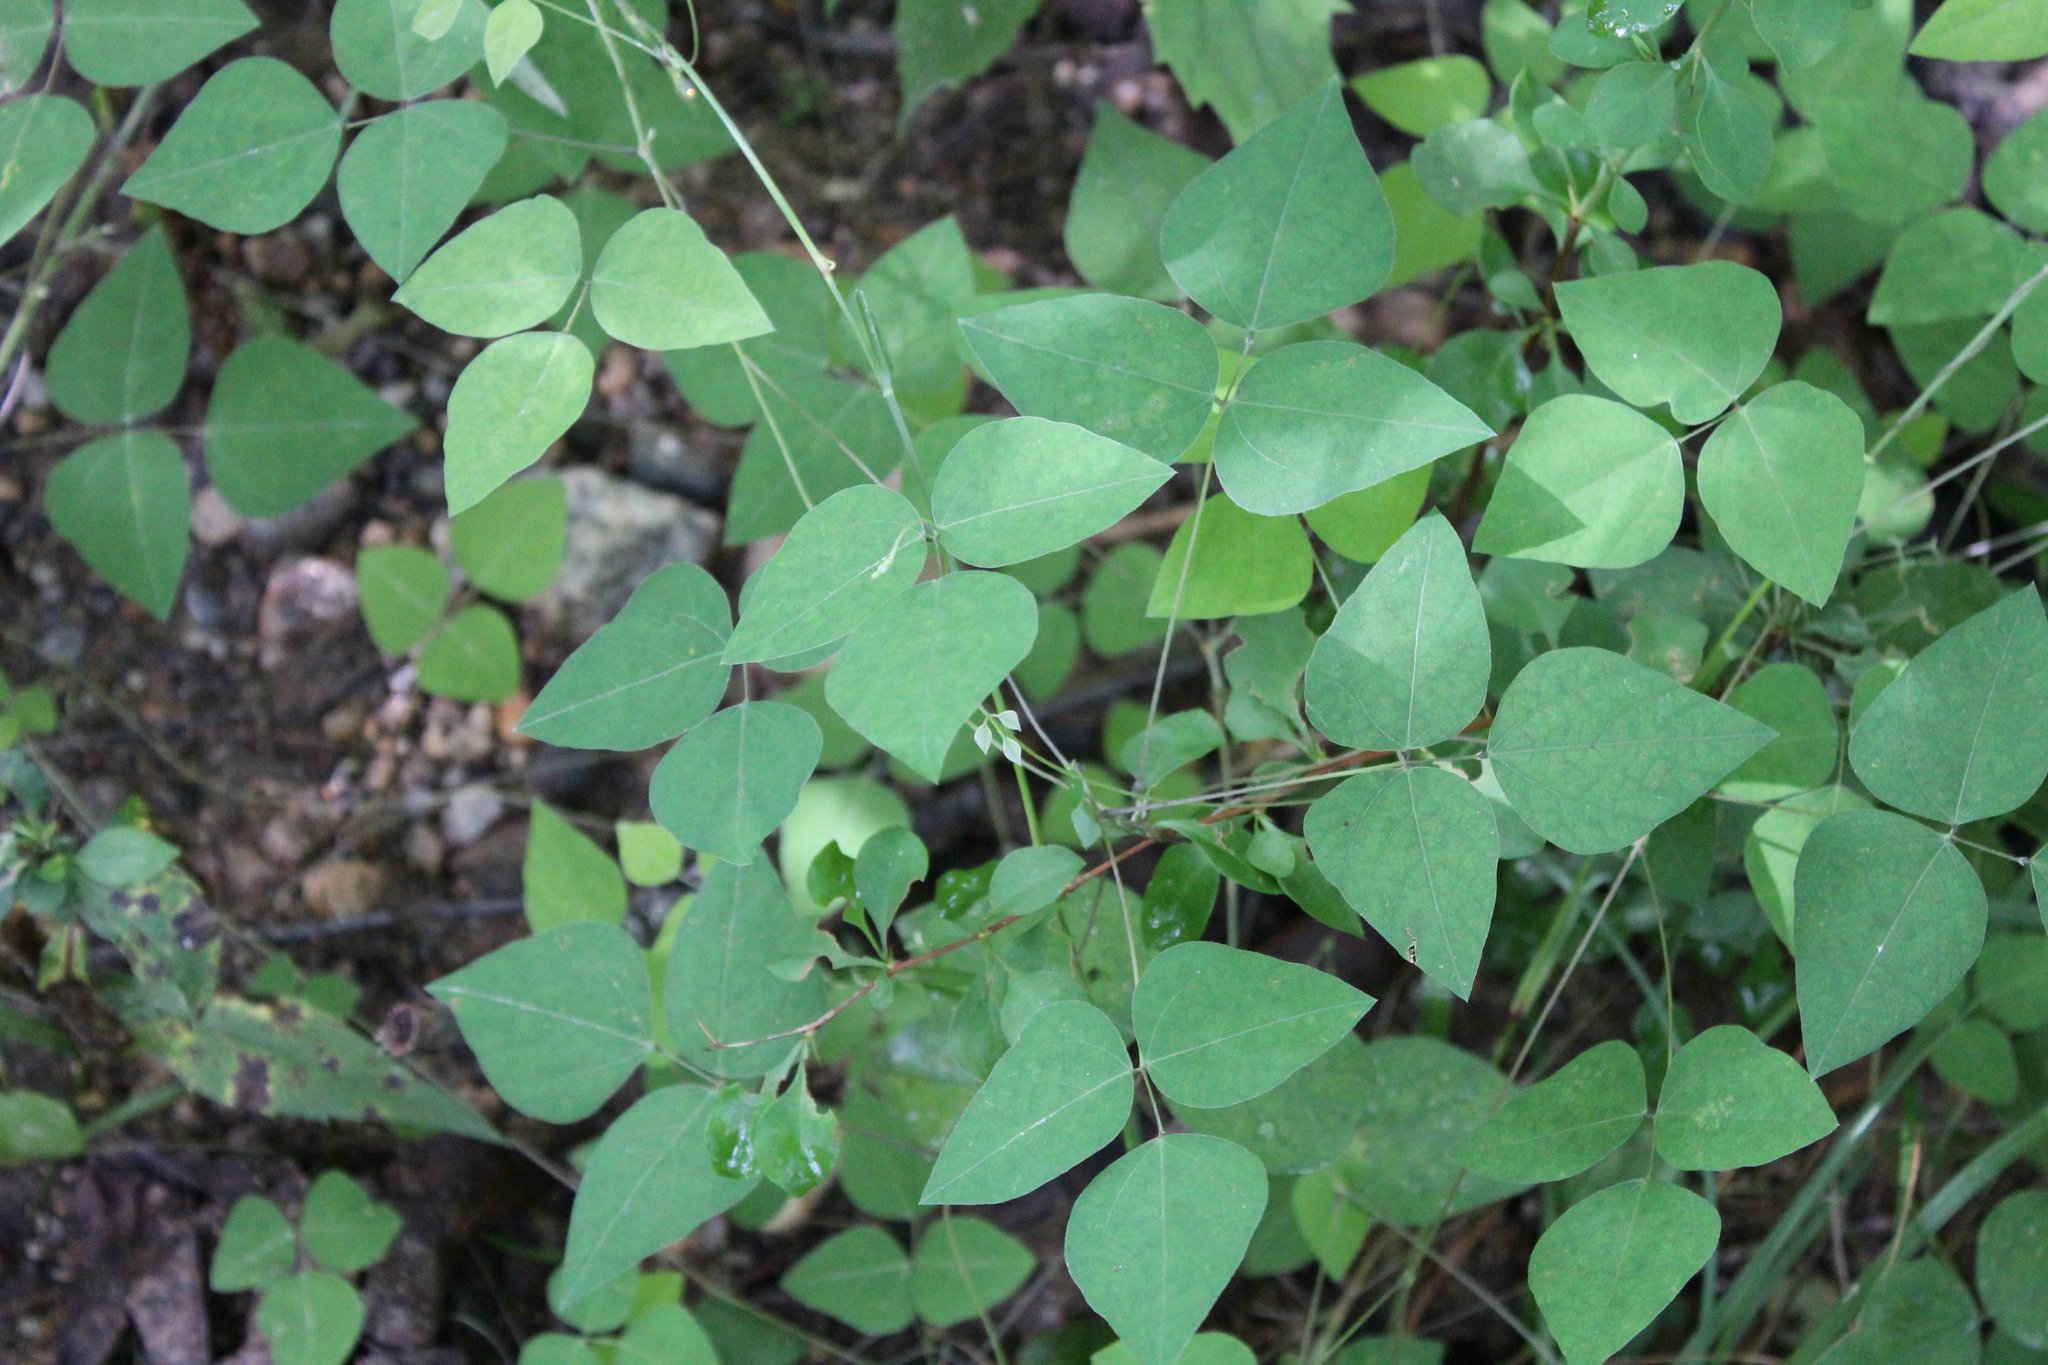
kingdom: Plantae
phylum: Tracheophyta
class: Magnoliopsida
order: Fabales
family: Fabaceae
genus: Amphicarpaea
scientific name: Amphicarpaea bracteata
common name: American hog peanut
